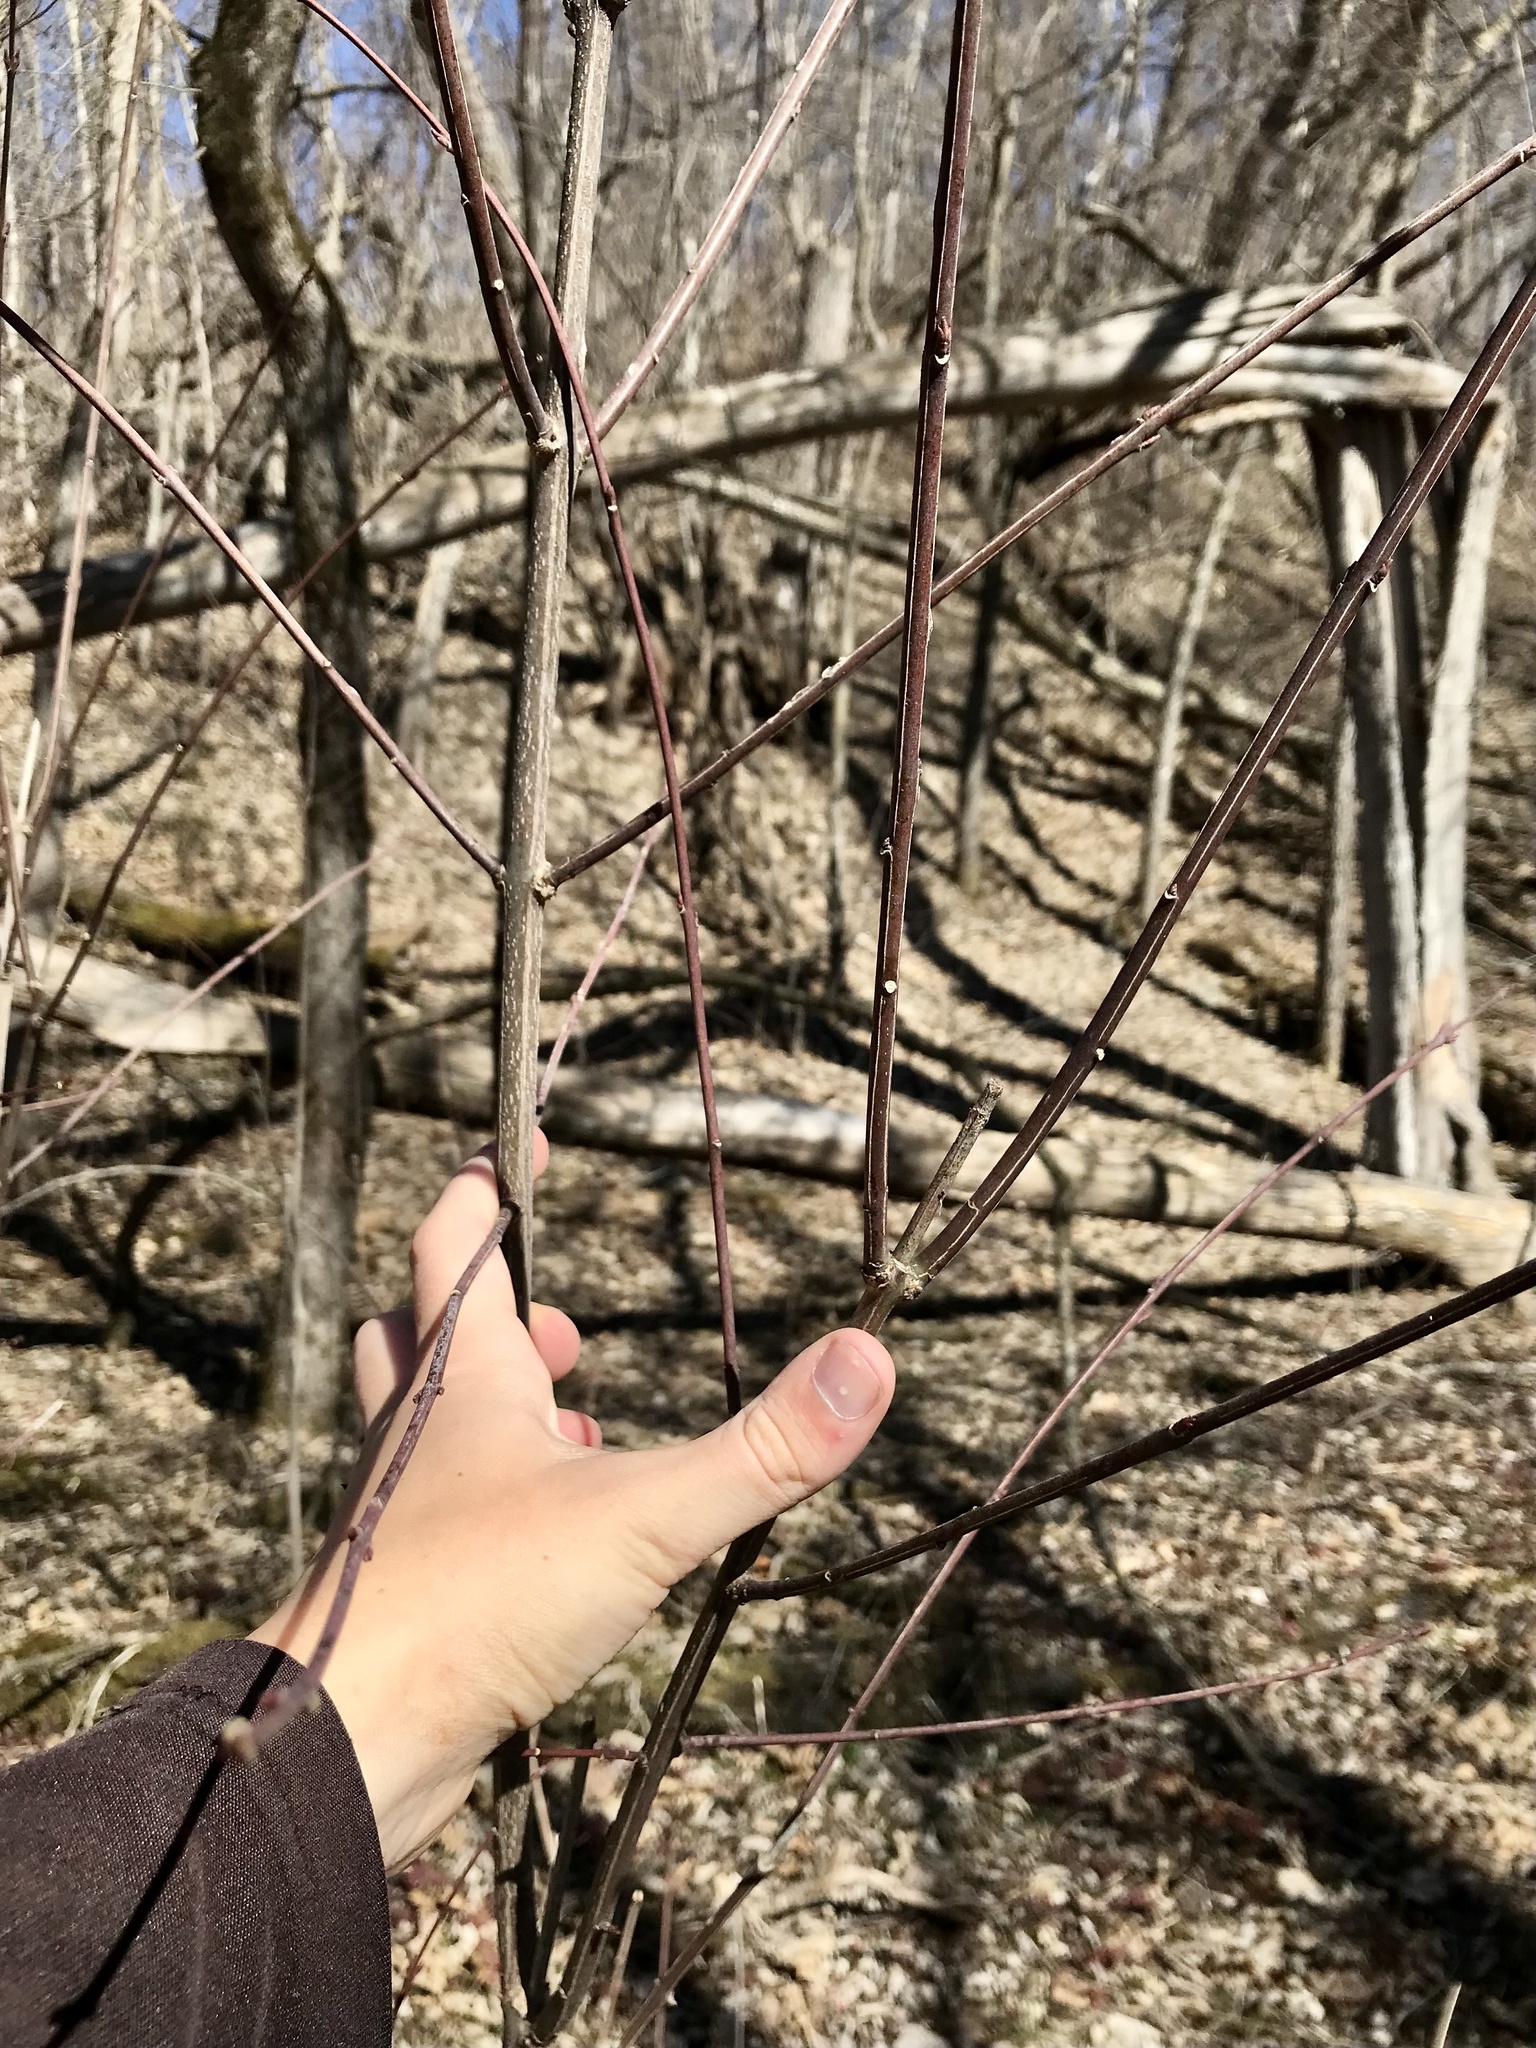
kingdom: Plantae
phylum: Tracheophyta
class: Magnoliopsida
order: Celastrales
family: Celastraceae
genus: Euonymus
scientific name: Euonymus atropurpureus
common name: Eastern wahoo
